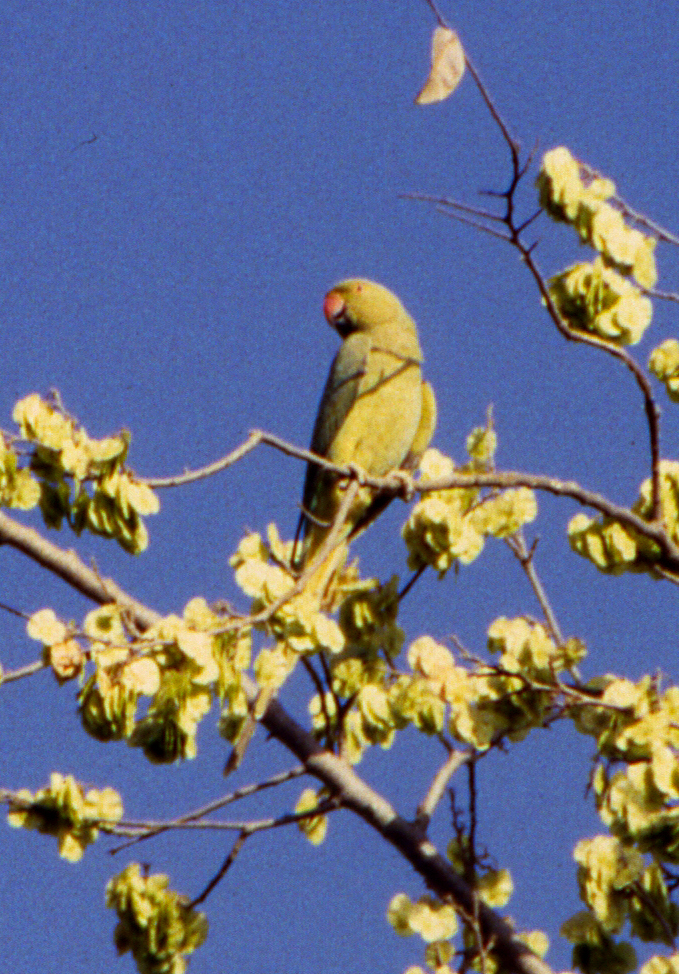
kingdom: Animalia
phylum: Chordata
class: Aves
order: Psittaciformes
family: Psittacidae
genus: Psittacula
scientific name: Psittacula krameri
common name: Rose-ringed parakeet
